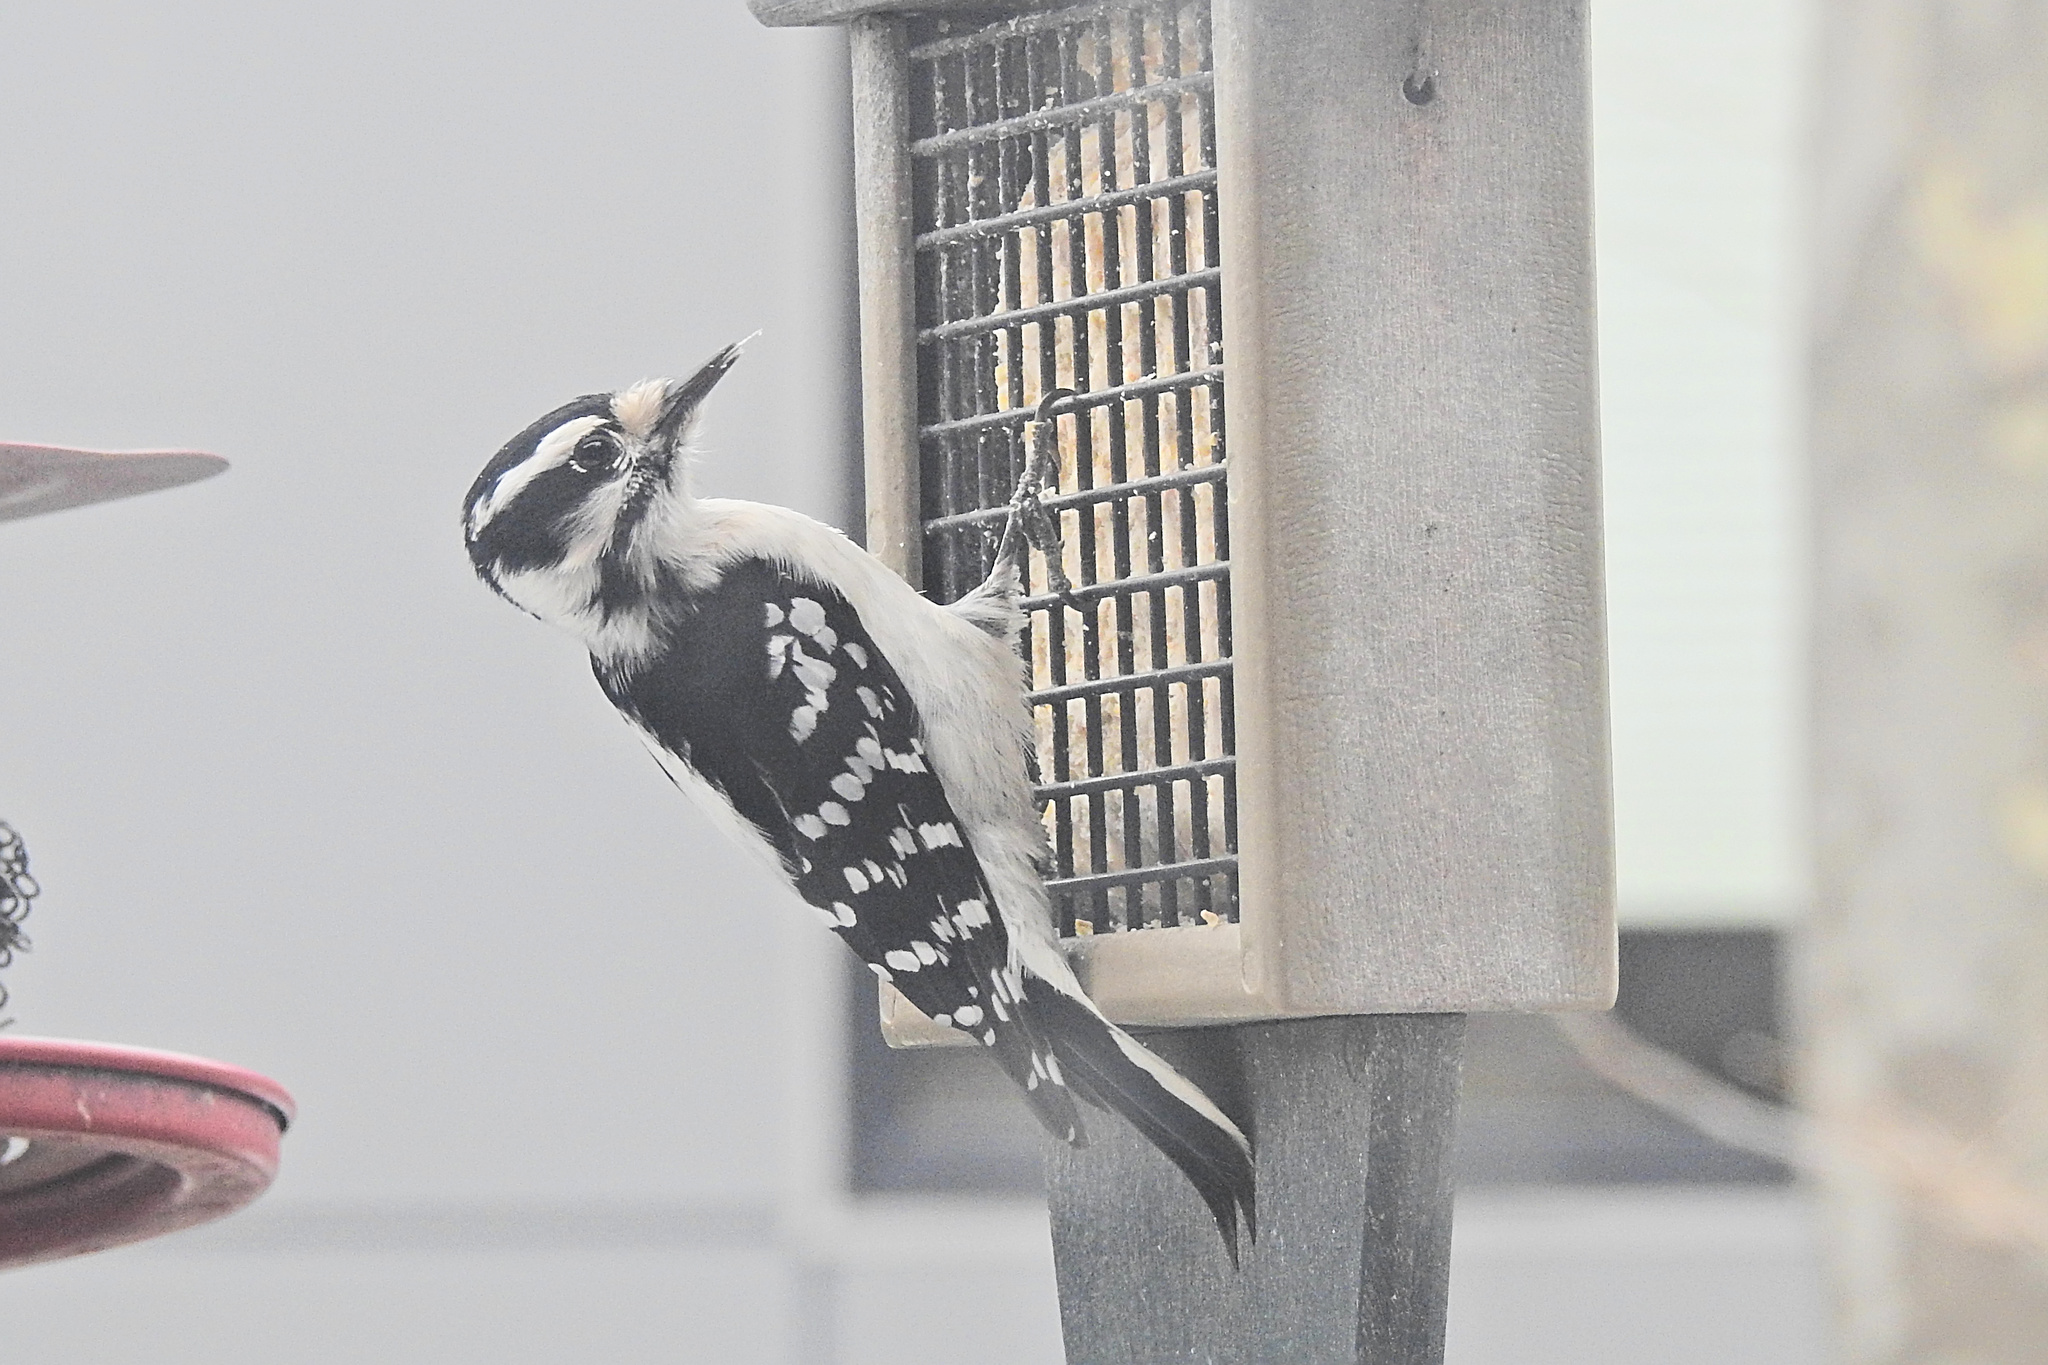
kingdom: Animalia
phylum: Chordata
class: Aves
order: Piciformes
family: Picidae
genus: Dryobates
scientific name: Dryobates pubescens
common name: Downy woodpecker
